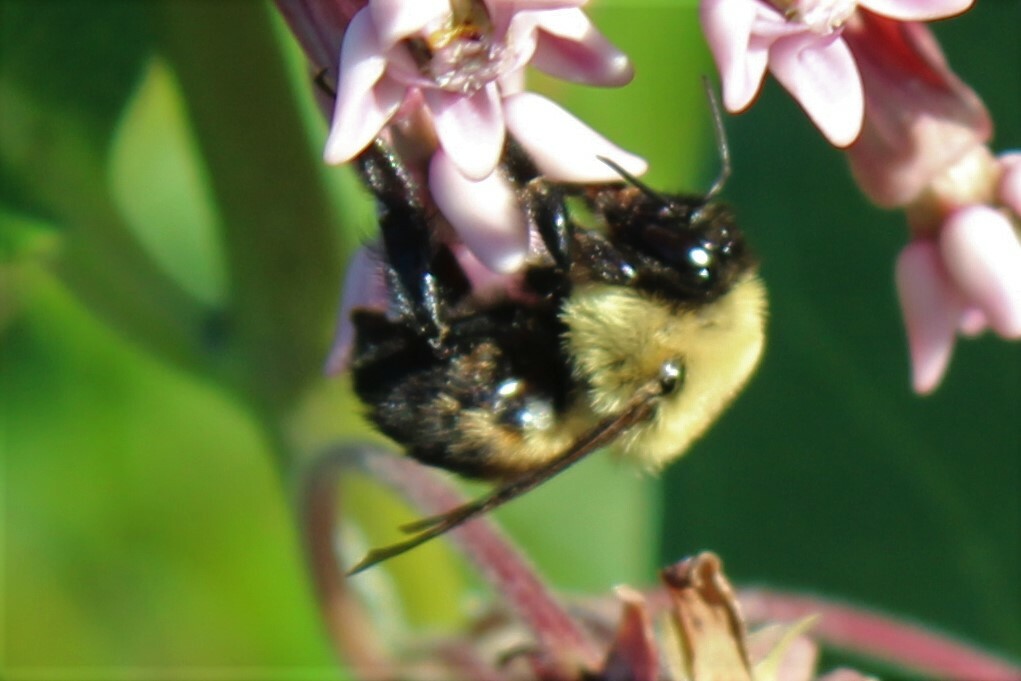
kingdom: Animalia
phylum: Arthropoda
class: Insecta
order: Hymenoptera
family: Apidae
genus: Bombus
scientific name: Bombus griseocollis
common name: Brown-belted bumble bee
